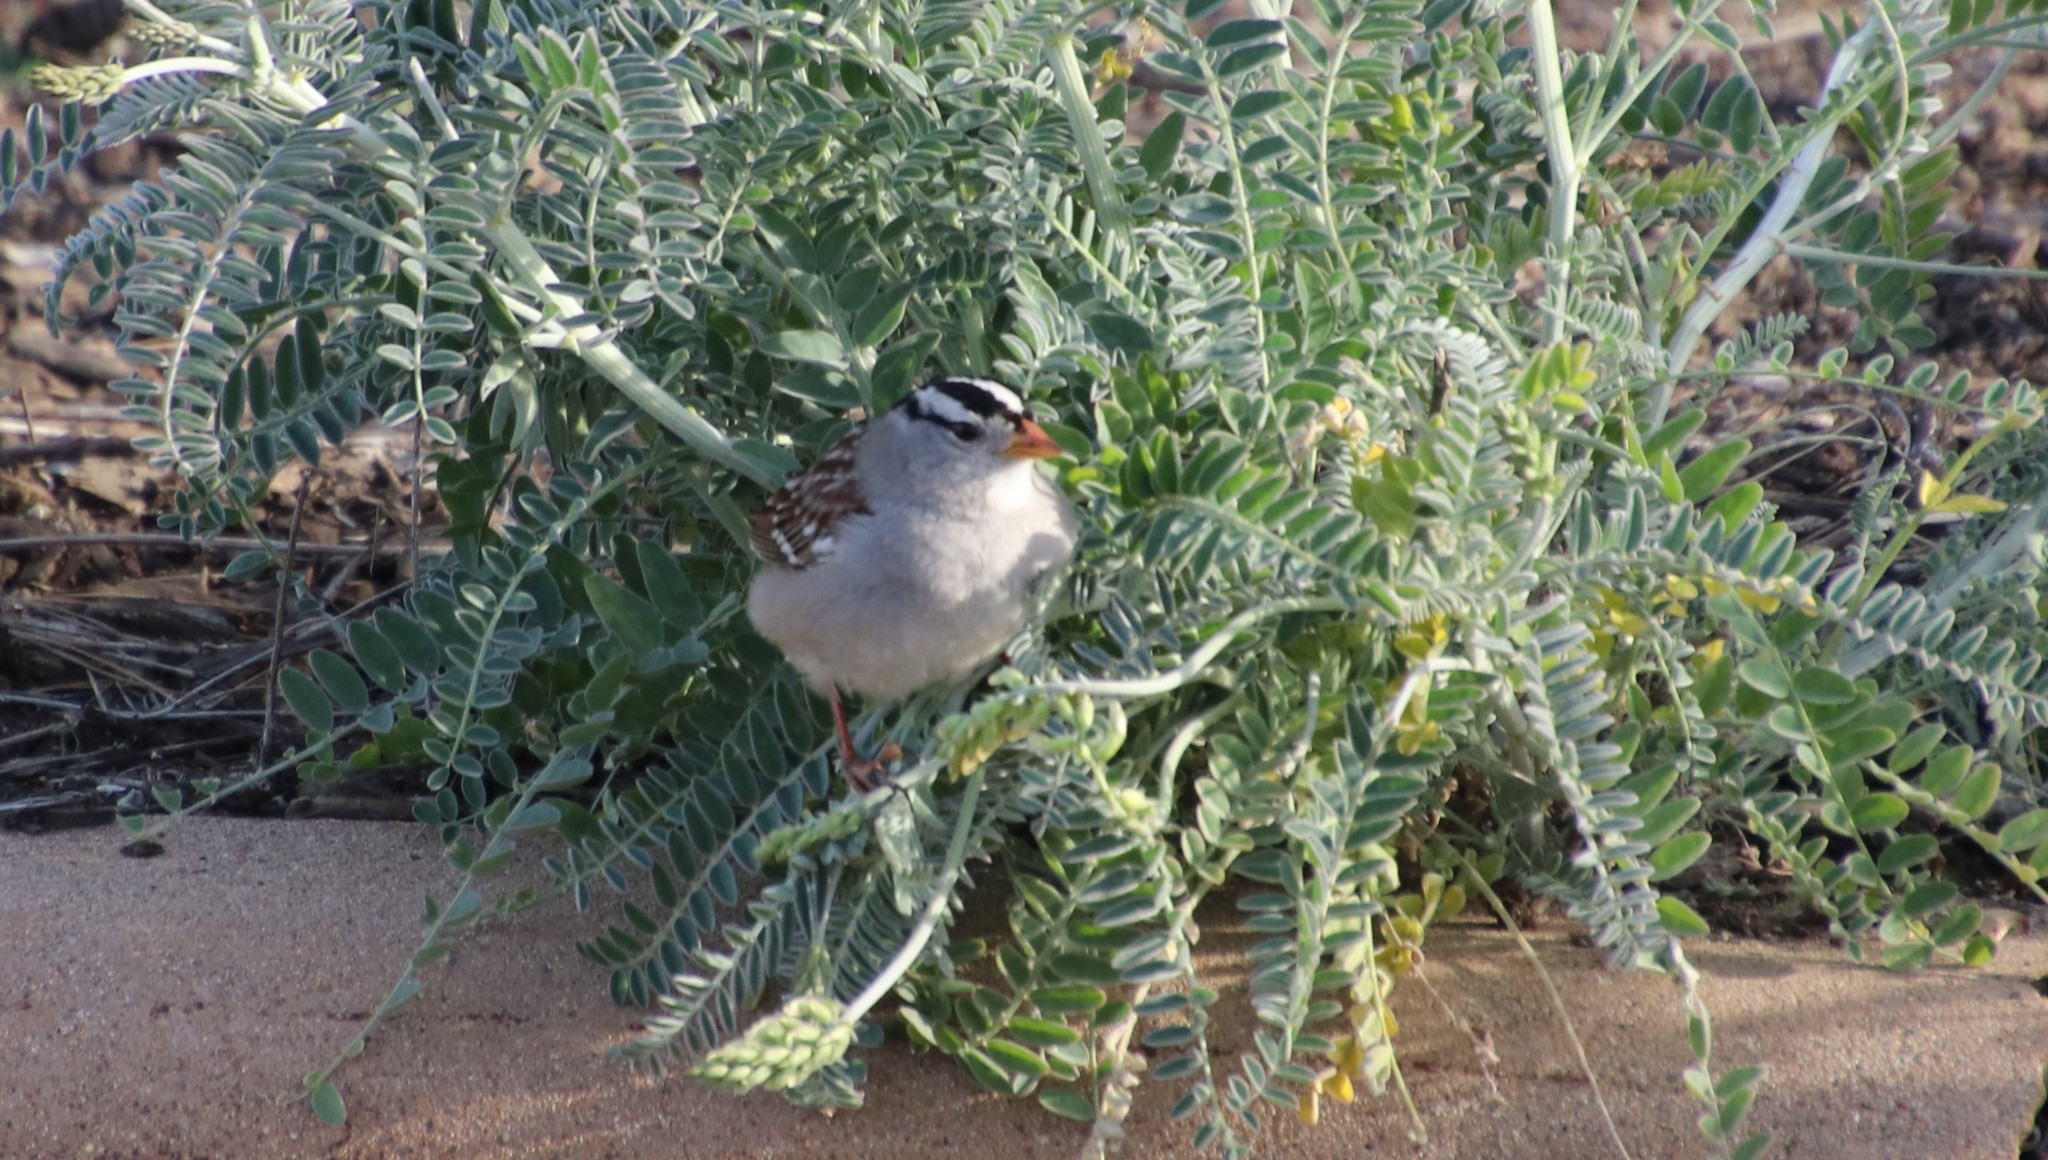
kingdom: Animalia
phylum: Chordata
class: Aves
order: Passeriformes
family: Passerellidae
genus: Zonotrichia
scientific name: Zonotrichia leucophrys
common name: White-crowned sparrow
